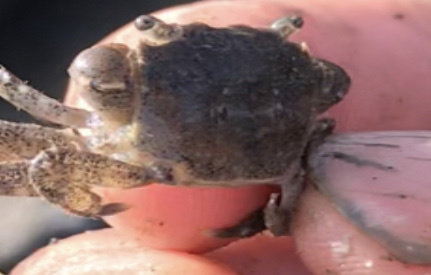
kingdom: Animalia
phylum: Arthropoda
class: Malacostraca
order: Decapoda
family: Varunidae
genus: Hemigrapsus
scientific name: Hemigrapsus oregonensis
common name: Yellow shore crab
